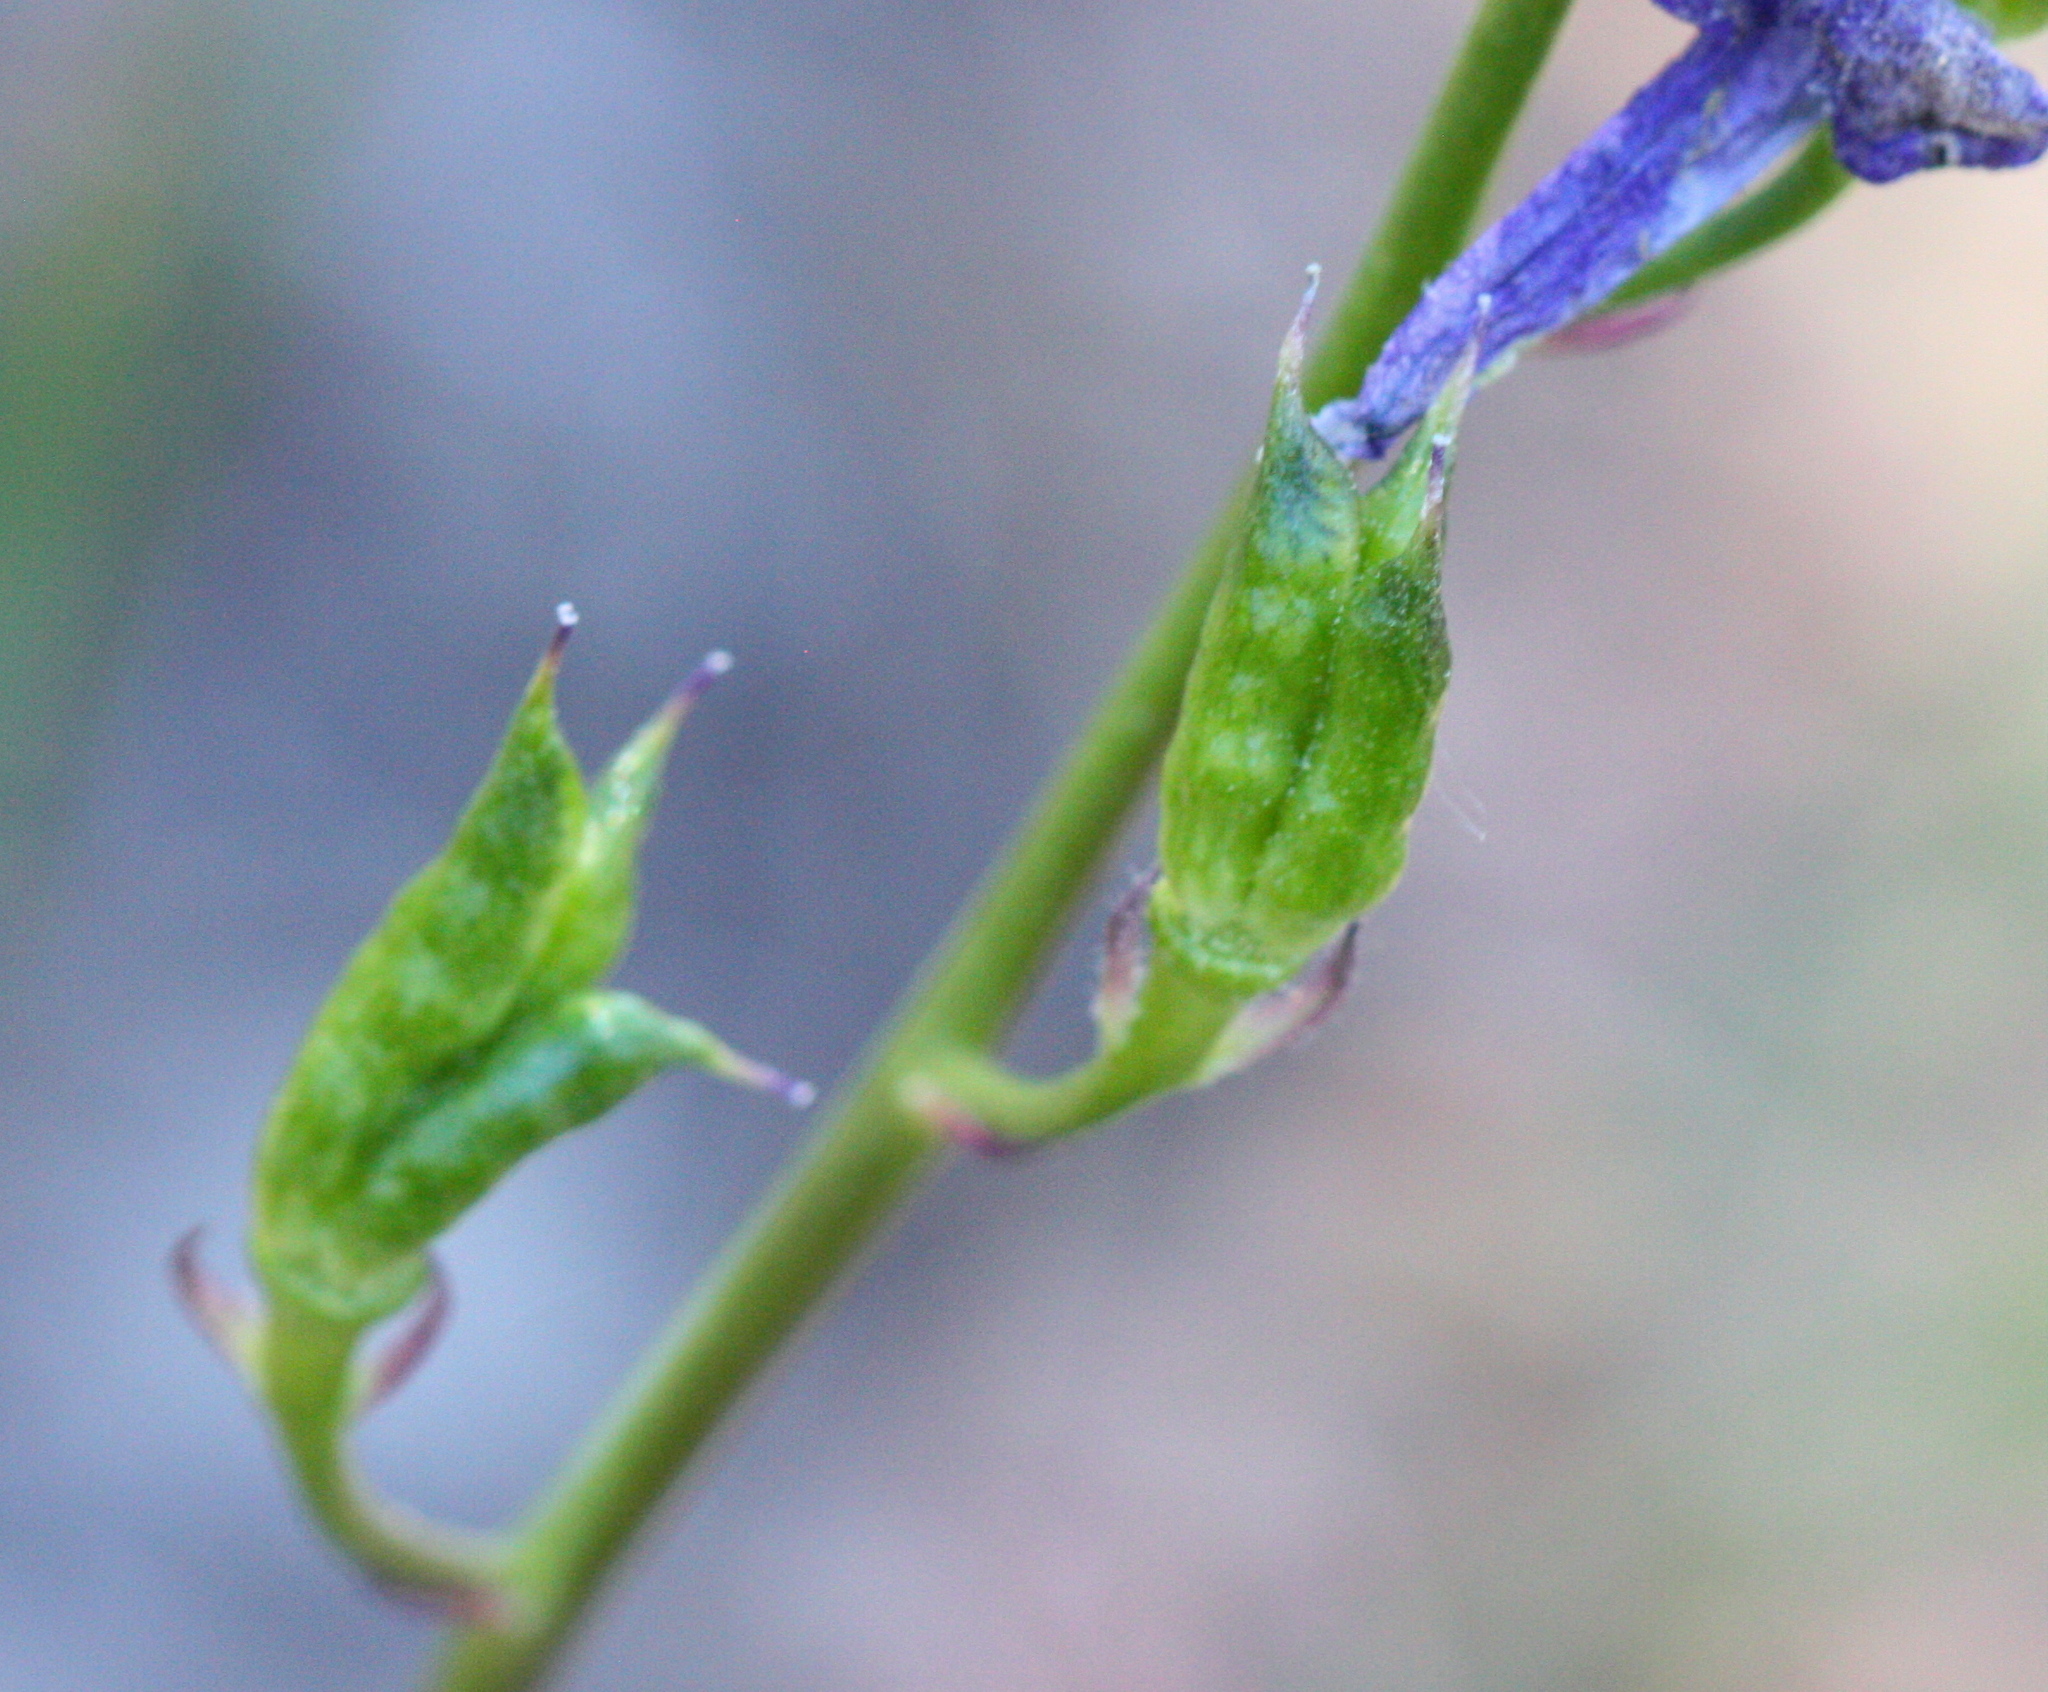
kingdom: Plantae
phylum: Tracheophyta
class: Magnoliopsida
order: Ranunculales
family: Ranunculaceae
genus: Delphinium
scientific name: Delphinium nuttallianum
